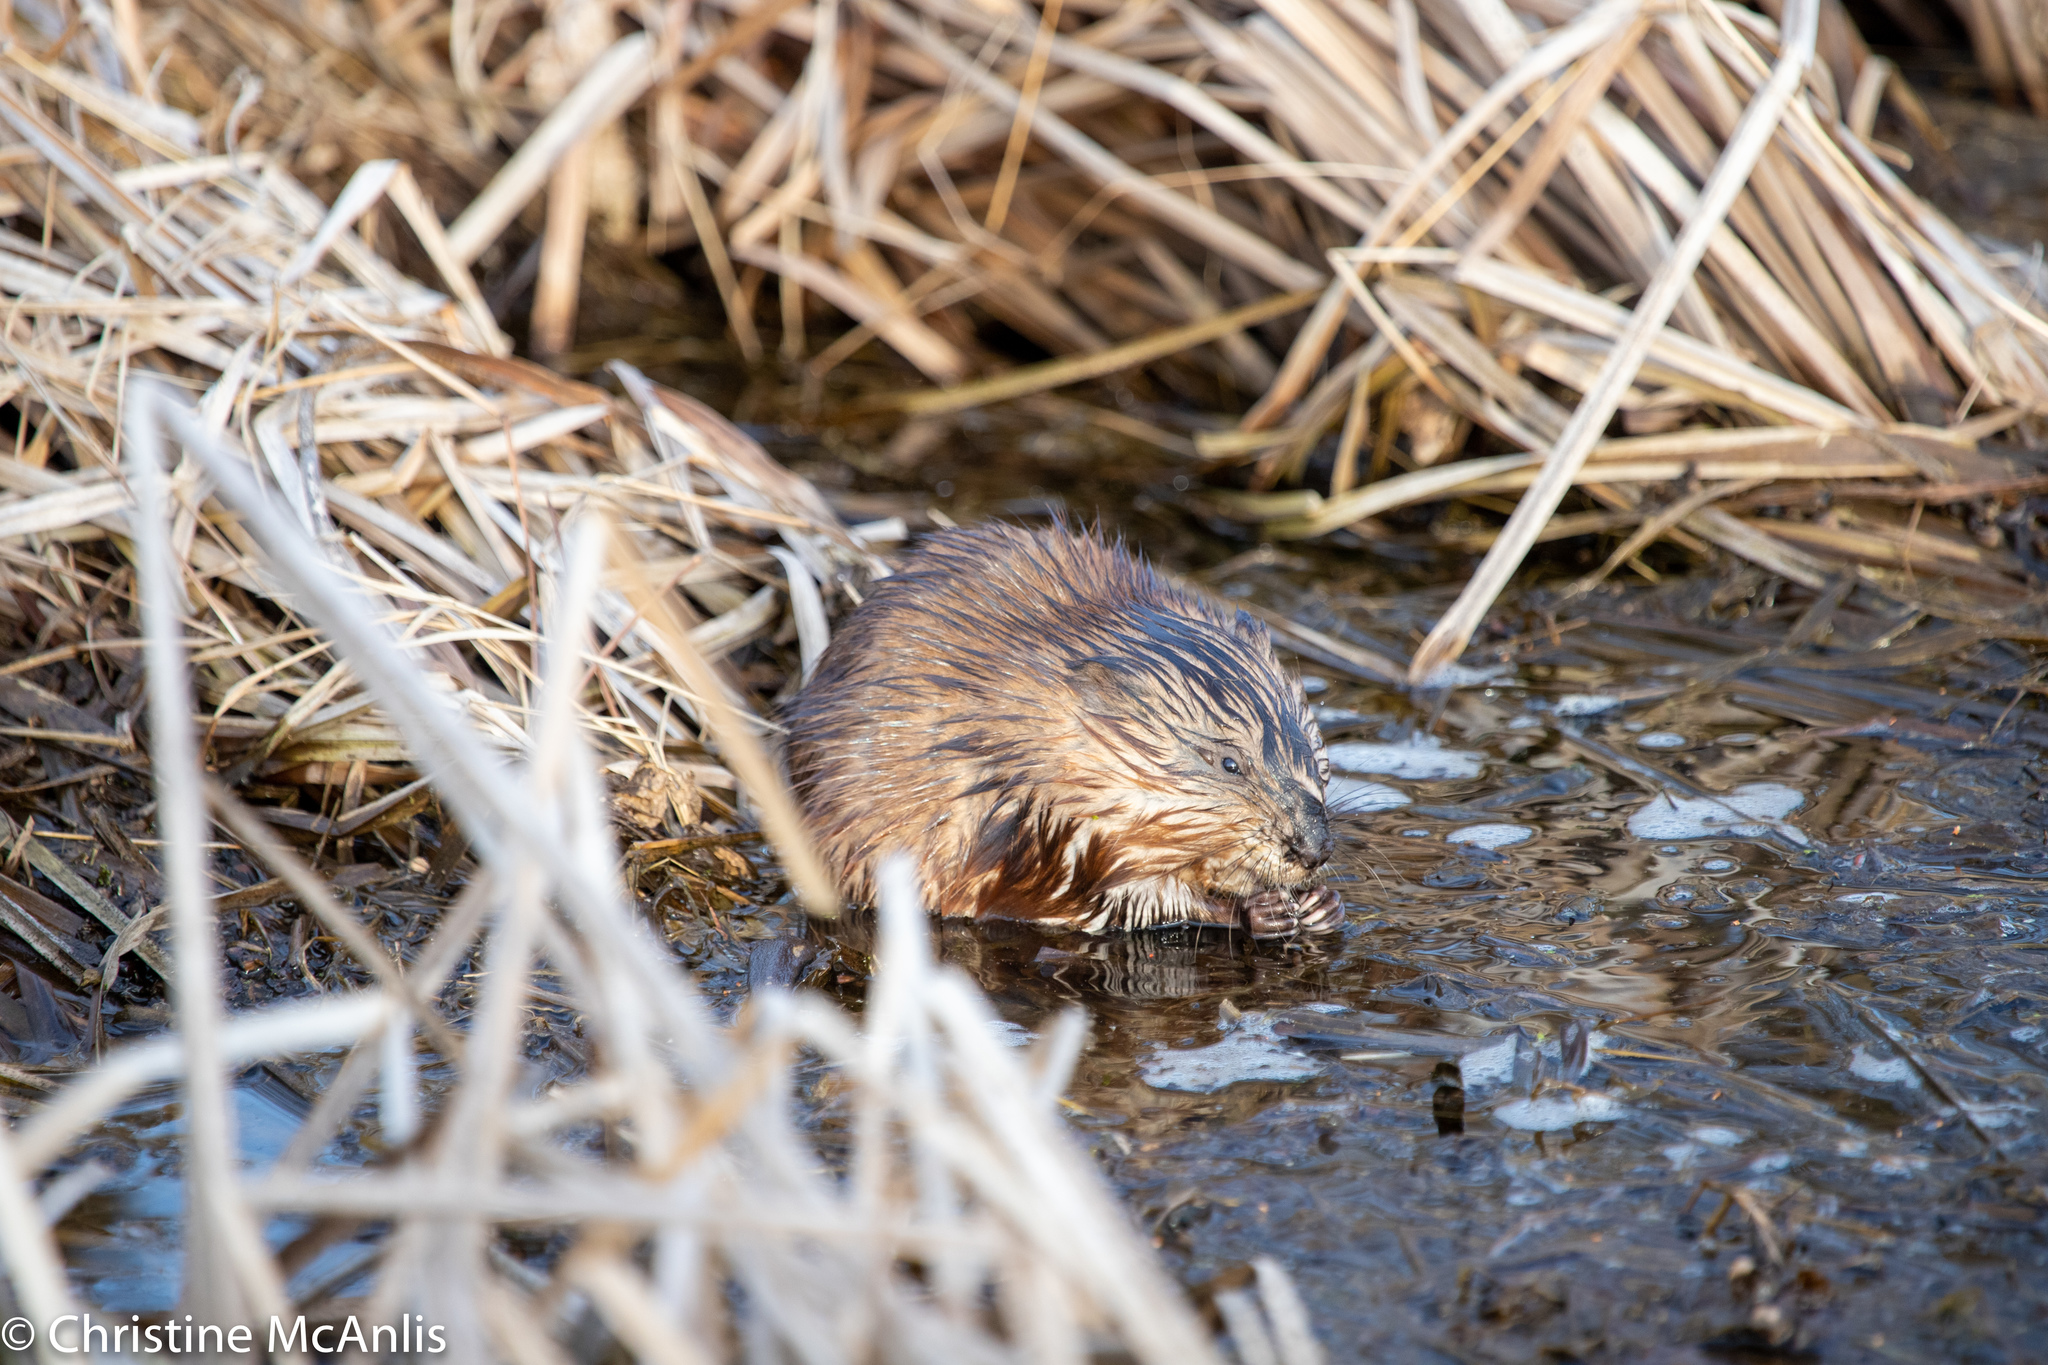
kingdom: Animalia
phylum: Chordata
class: Mammalia
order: Rodentia
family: Cricetidae
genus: Ondatra
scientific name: Ondatra zibethicus
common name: Muskrat
